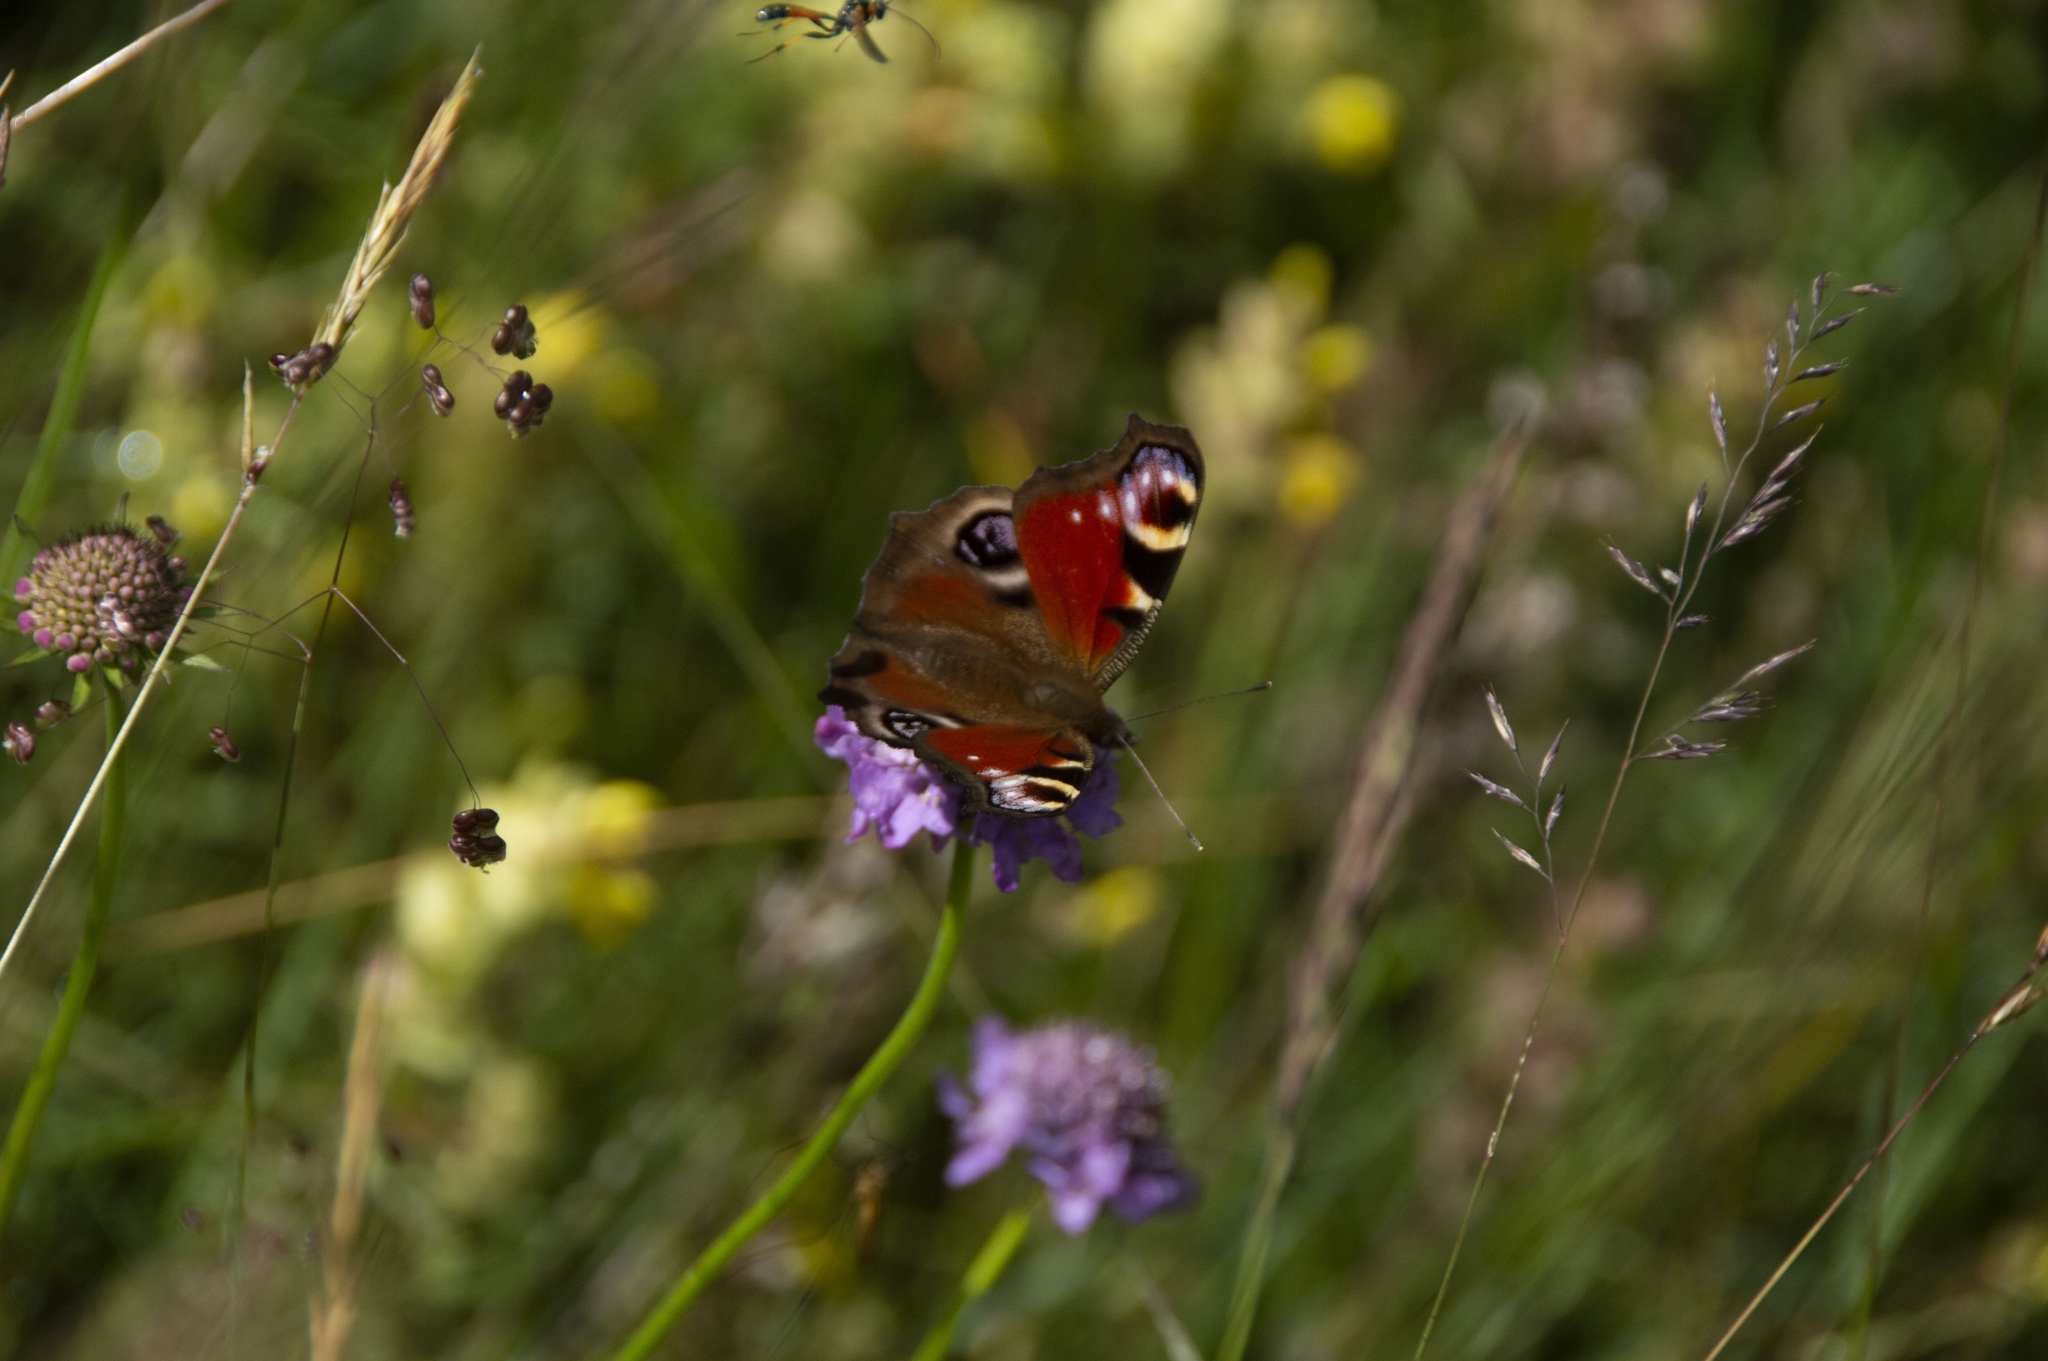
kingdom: Animalia
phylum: Arthropoda
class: Insecta
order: Lepidoptera
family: Nymphalidae
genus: Aglais
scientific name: Aglais io
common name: Peacock
